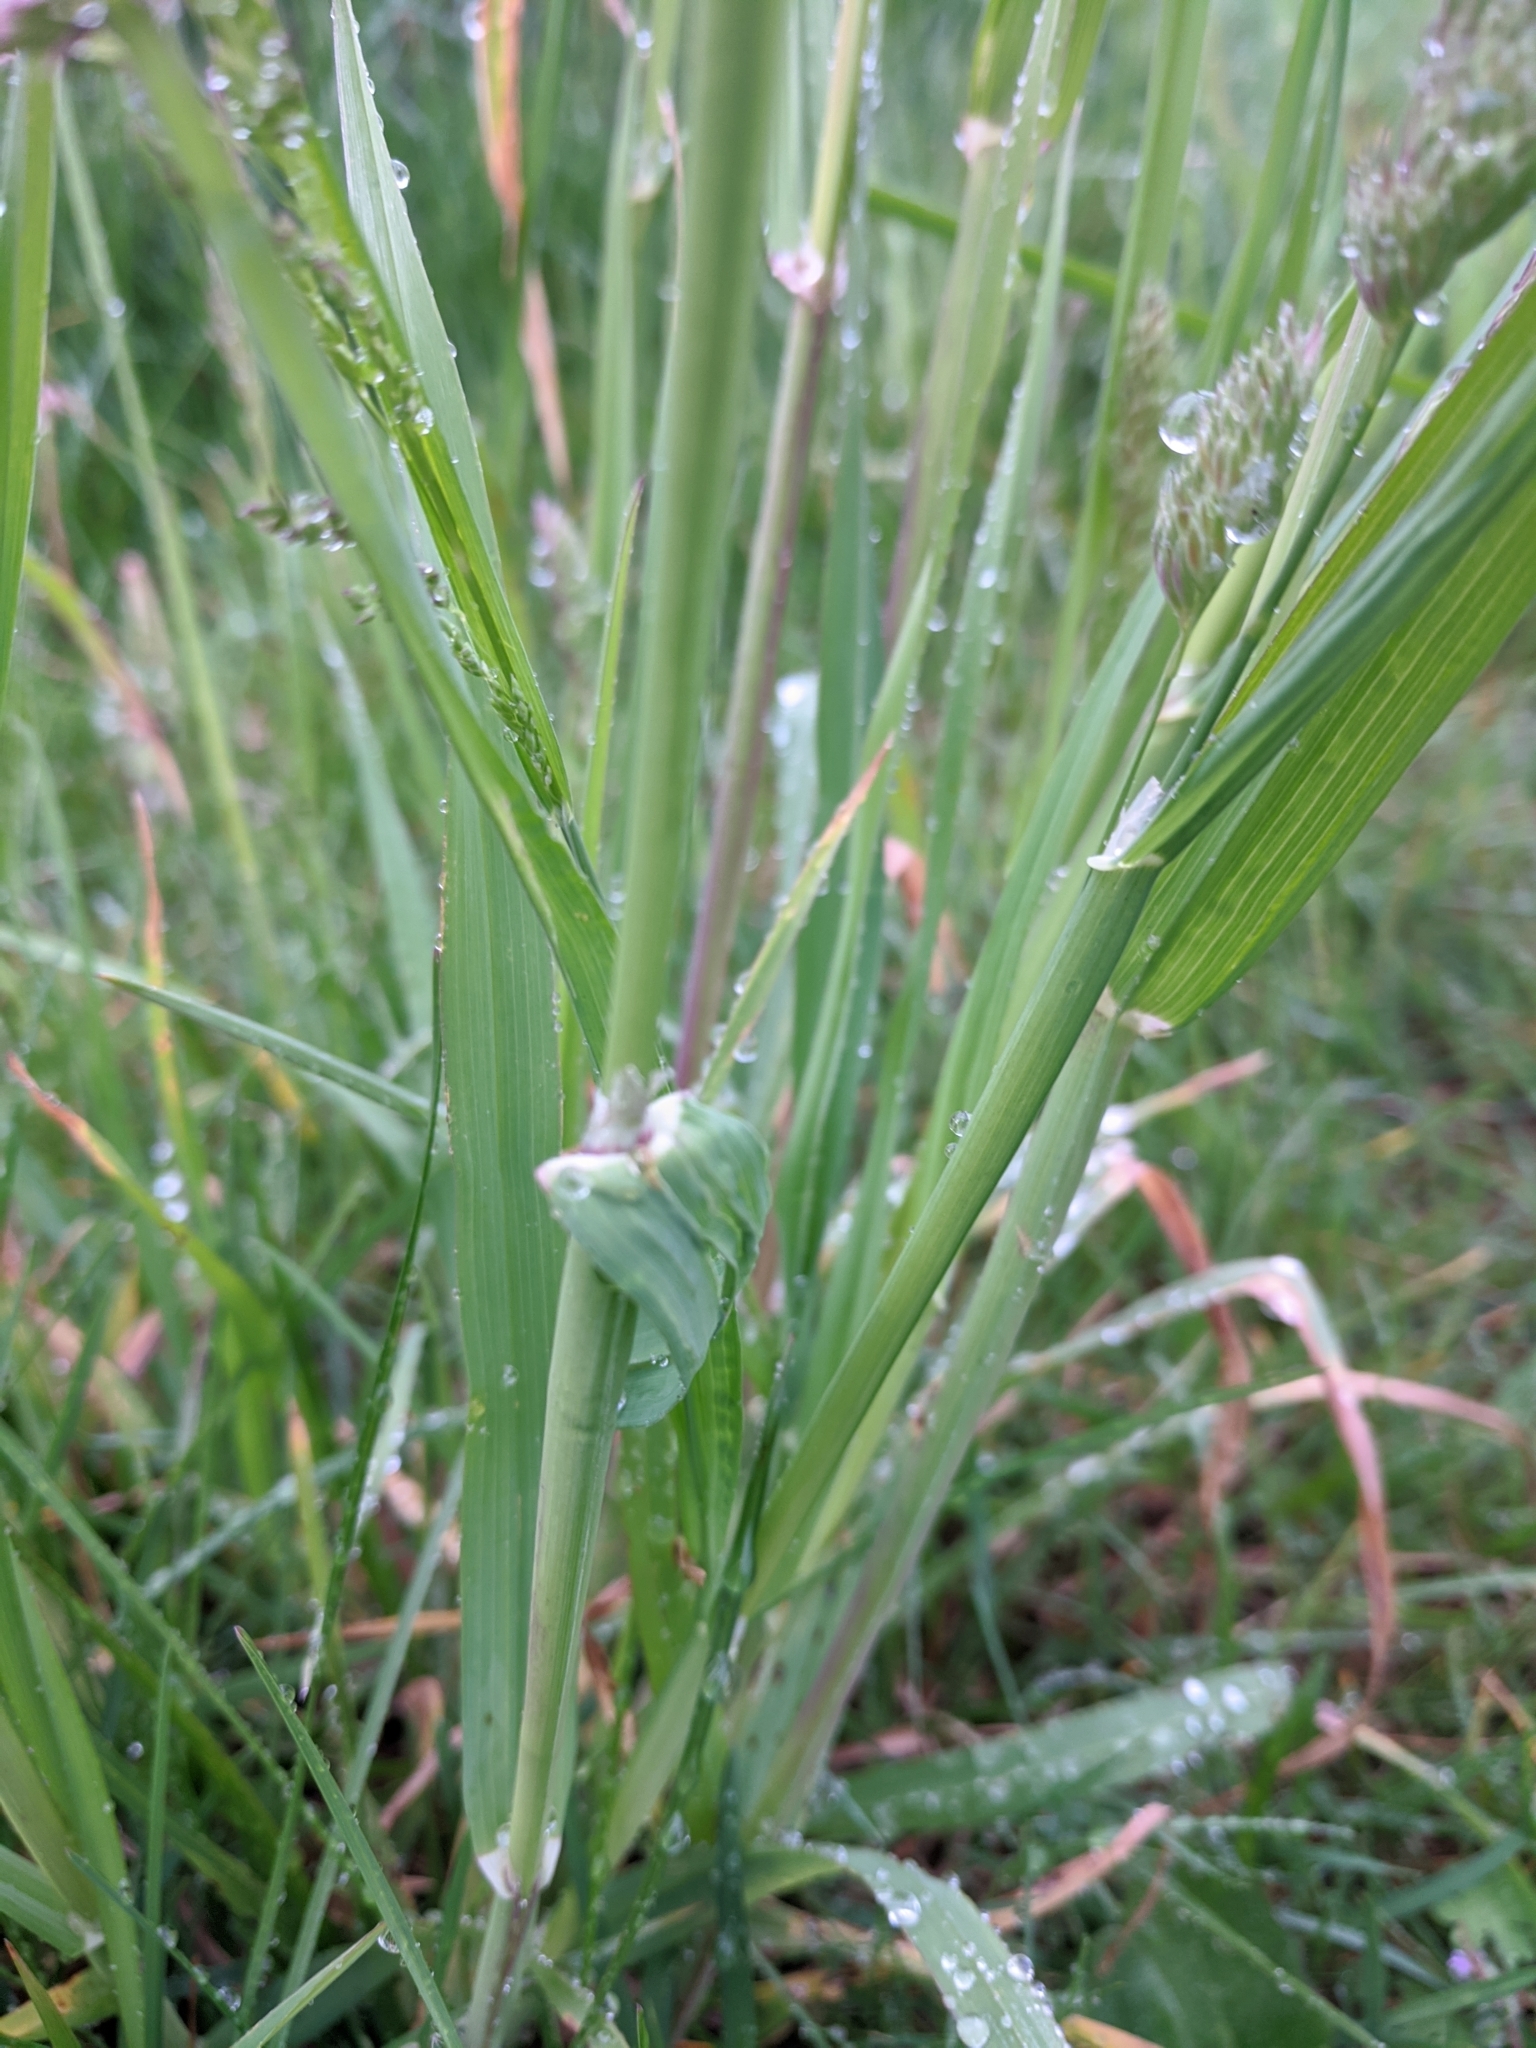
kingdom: Plantae
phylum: Tracheophyta
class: Liliopsida
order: Poales
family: Poaceae
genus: Dactylis
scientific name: Dactylis glomerata
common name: Orchardgrass
